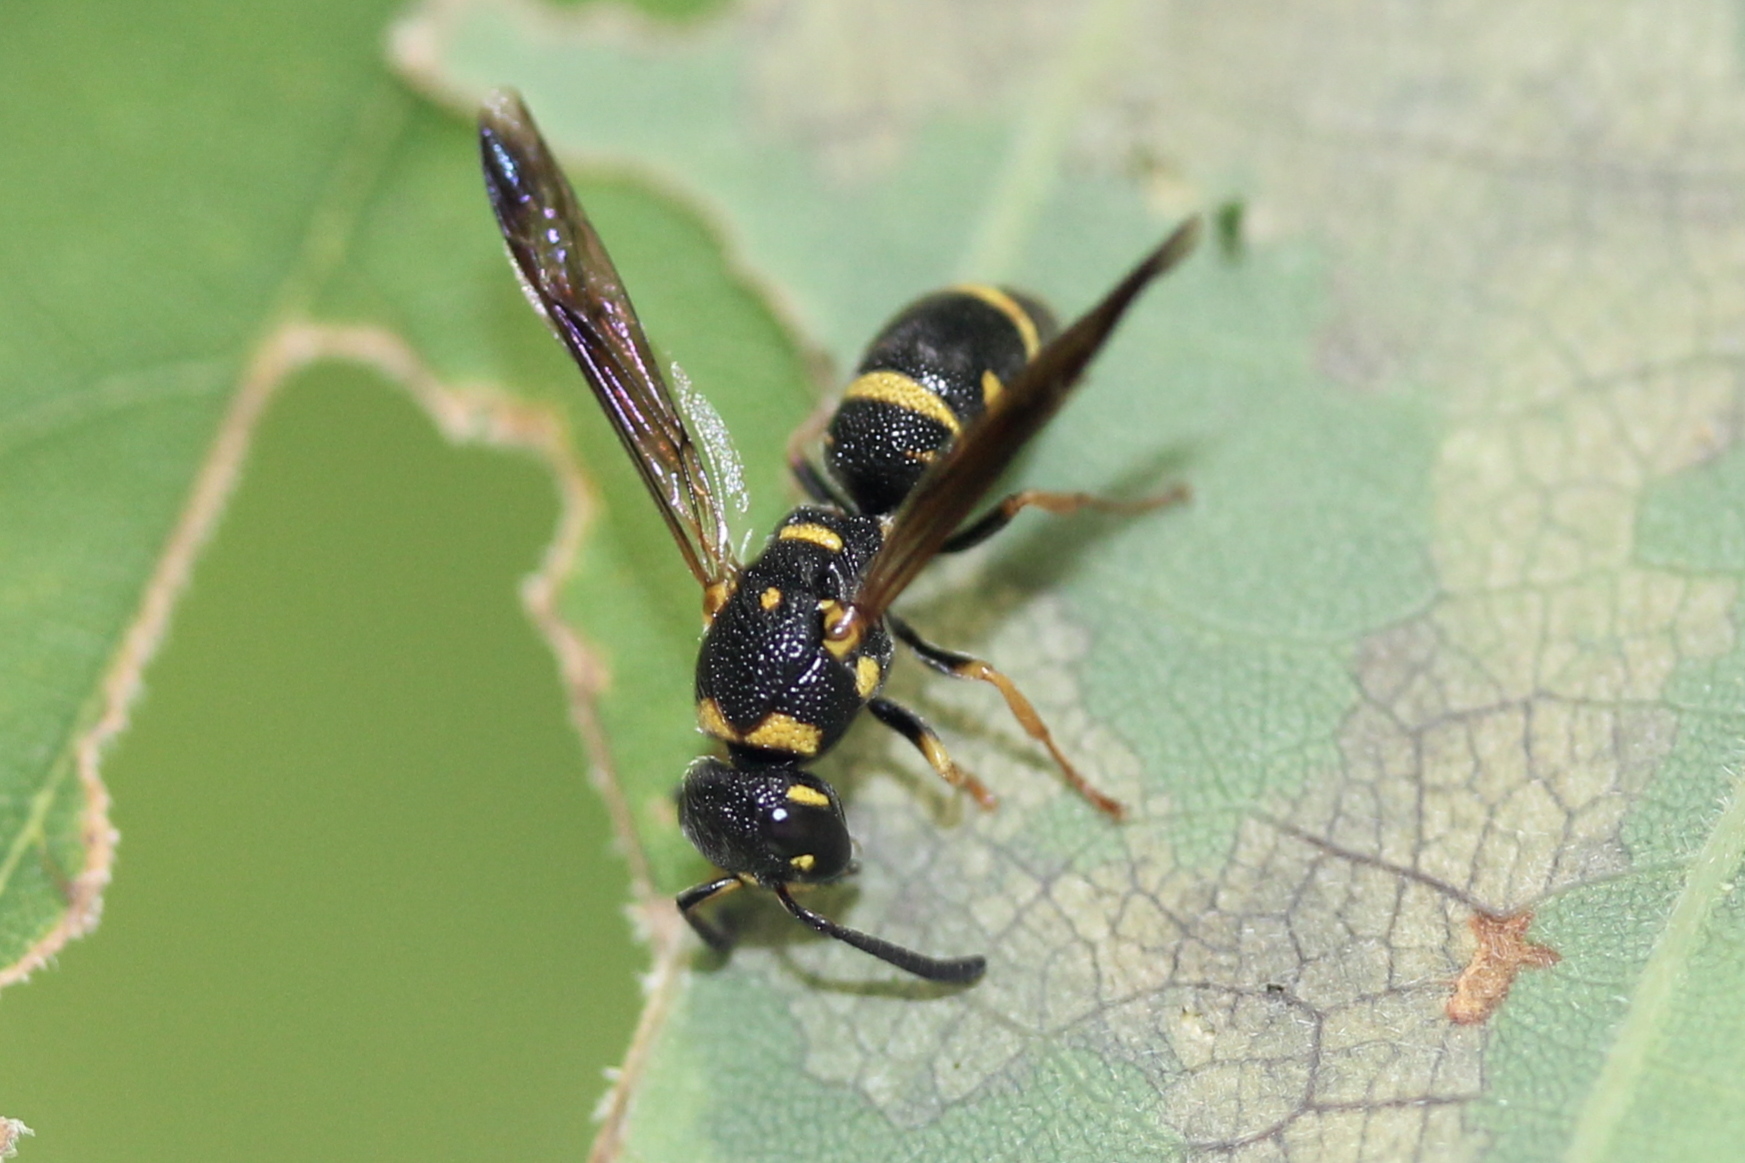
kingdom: Animalia
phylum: Arthropoda
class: Insecta
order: Hymenoptera
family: Eumenidae
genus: Parancistrocerus
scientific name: Parancistrocerus
